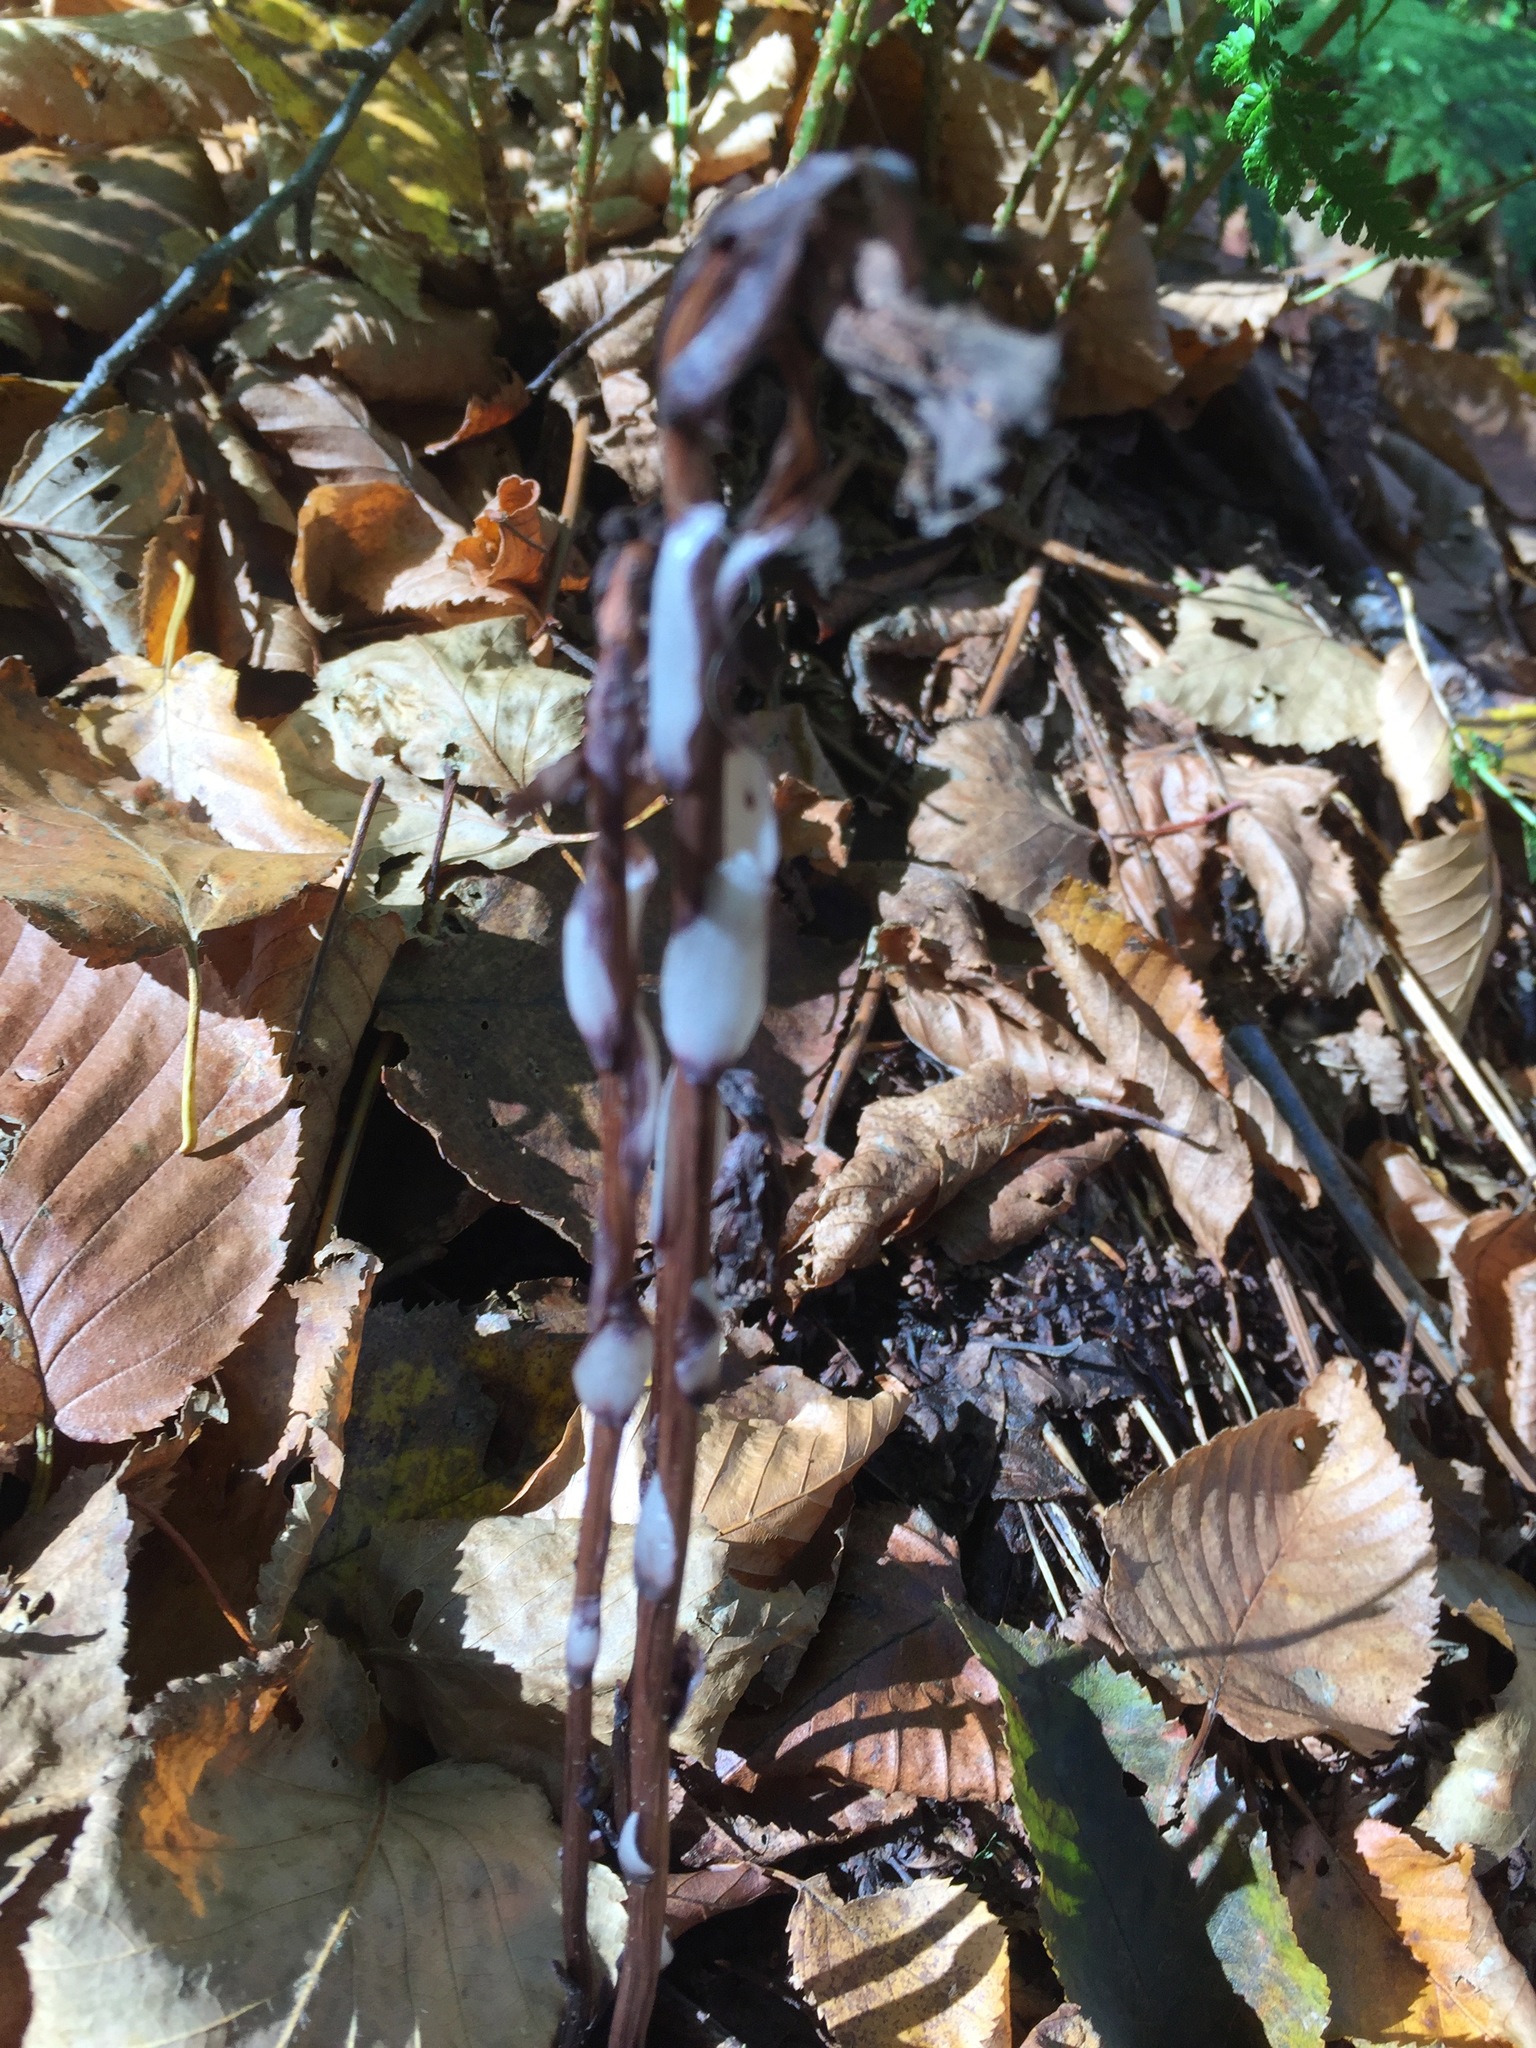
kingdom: Plantae
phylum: Tracheophyta
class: Magnoliopsida
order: Ericales
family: Ericaceae
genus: Monotropa
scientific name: Monotropa uniflora
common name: Convulsion root
